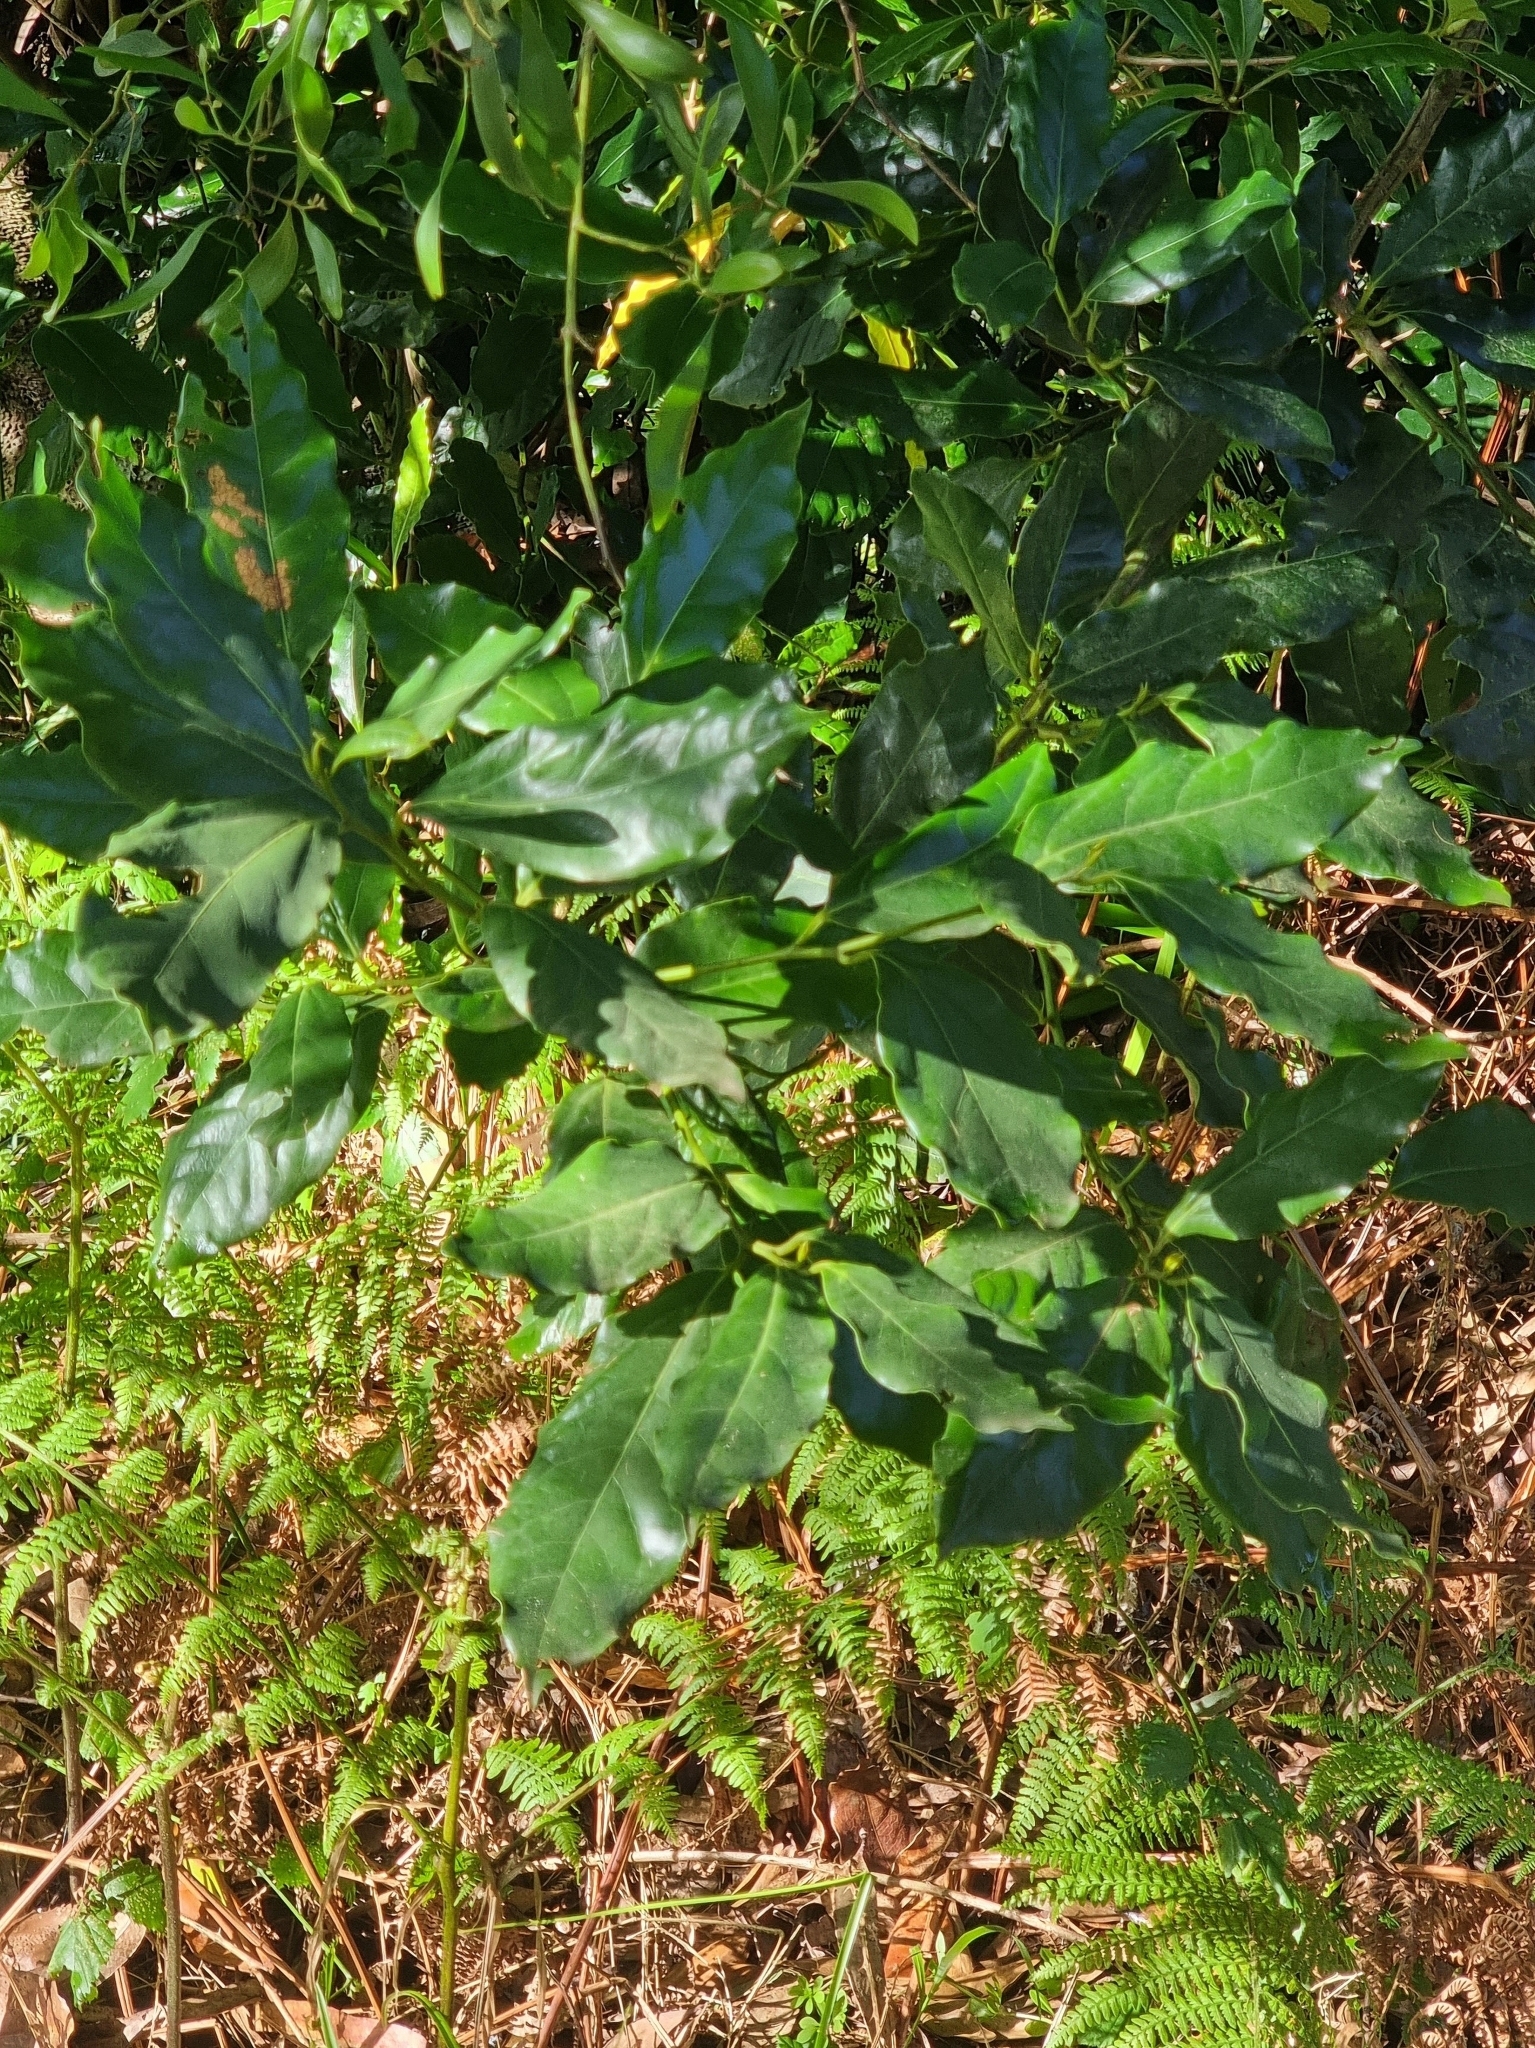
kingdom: Plantae
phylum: Tracheophyta
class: Magnoliopsida
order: Laurales
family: Lauraceae
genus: Mespilodaphne
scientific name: Mespilodaphne foetens
